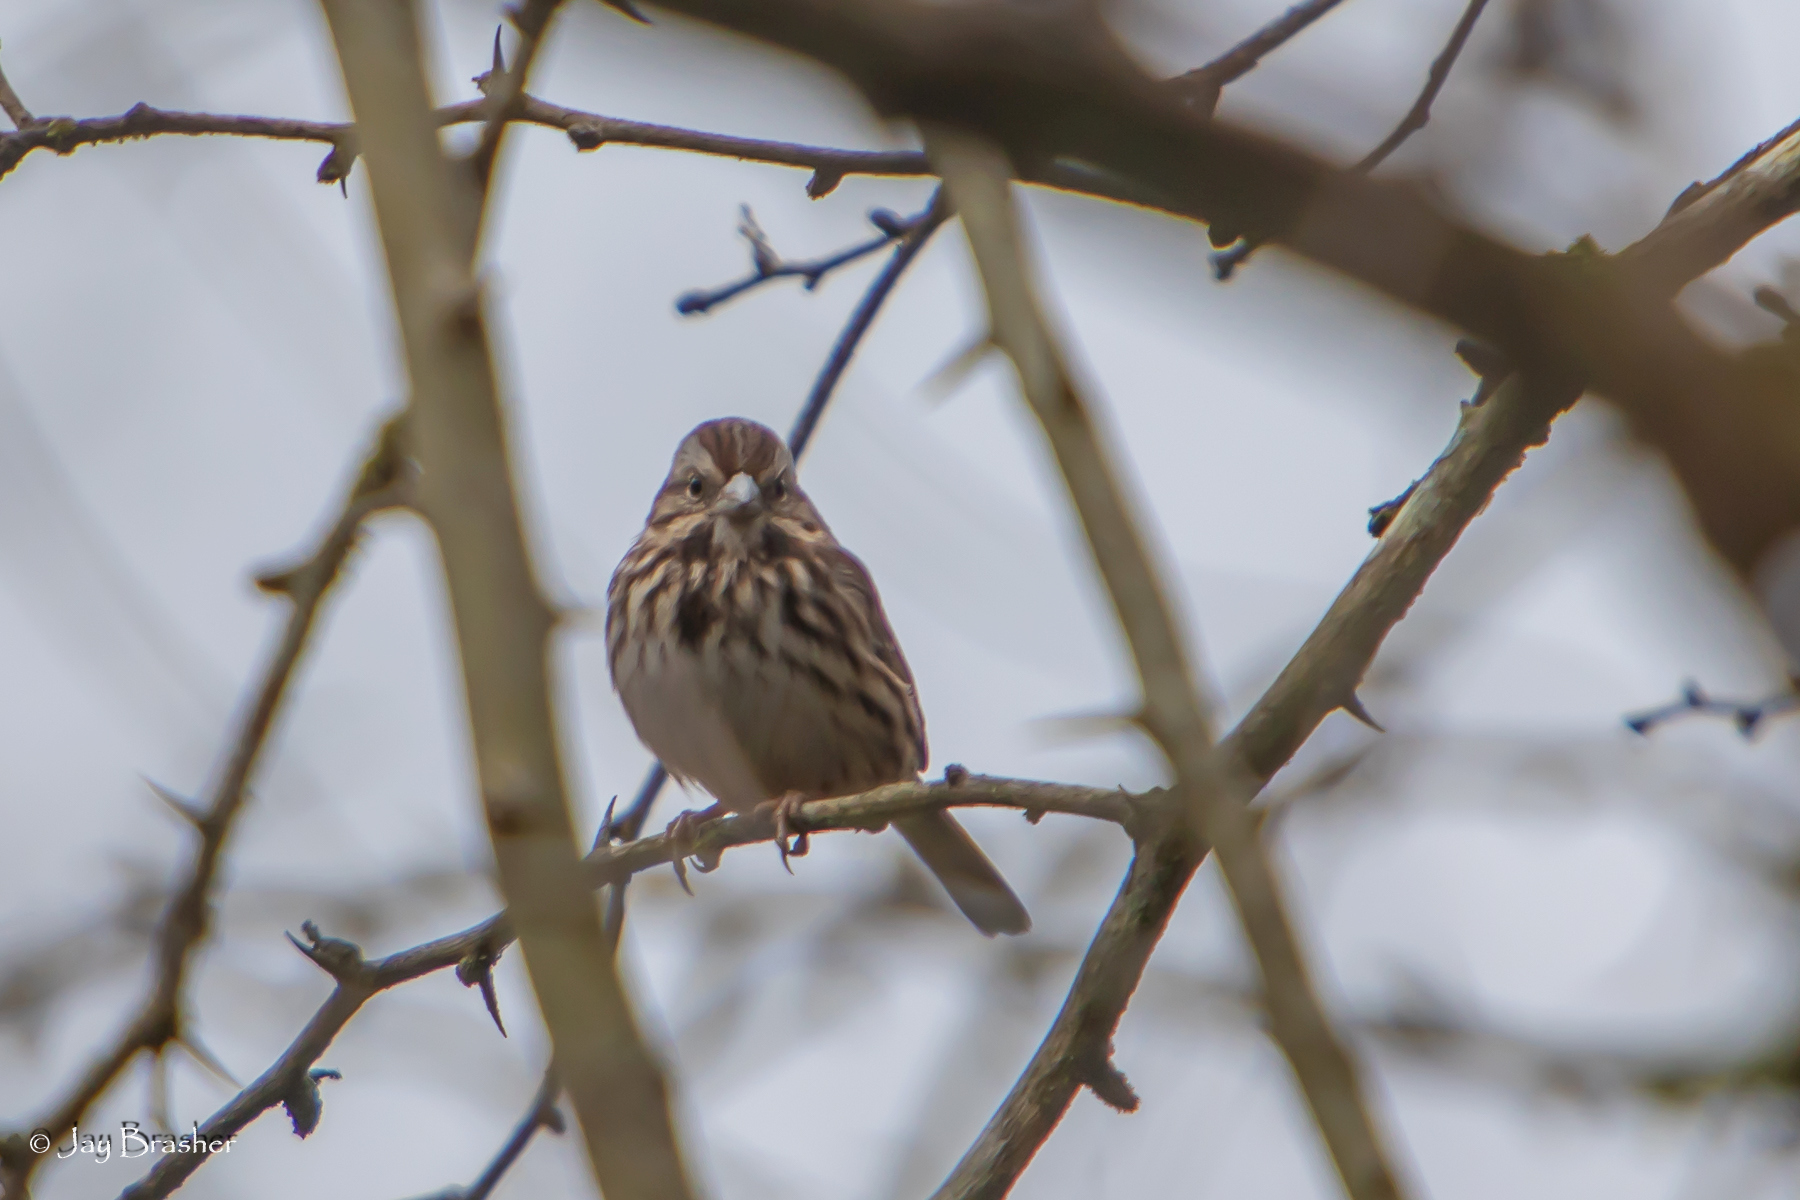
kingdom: Animalia
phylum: Chordata
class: Aves
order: Passeriformes
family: Passerellidae
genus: Melospiza
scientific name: Melospiza melodia
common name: Song sparrow
